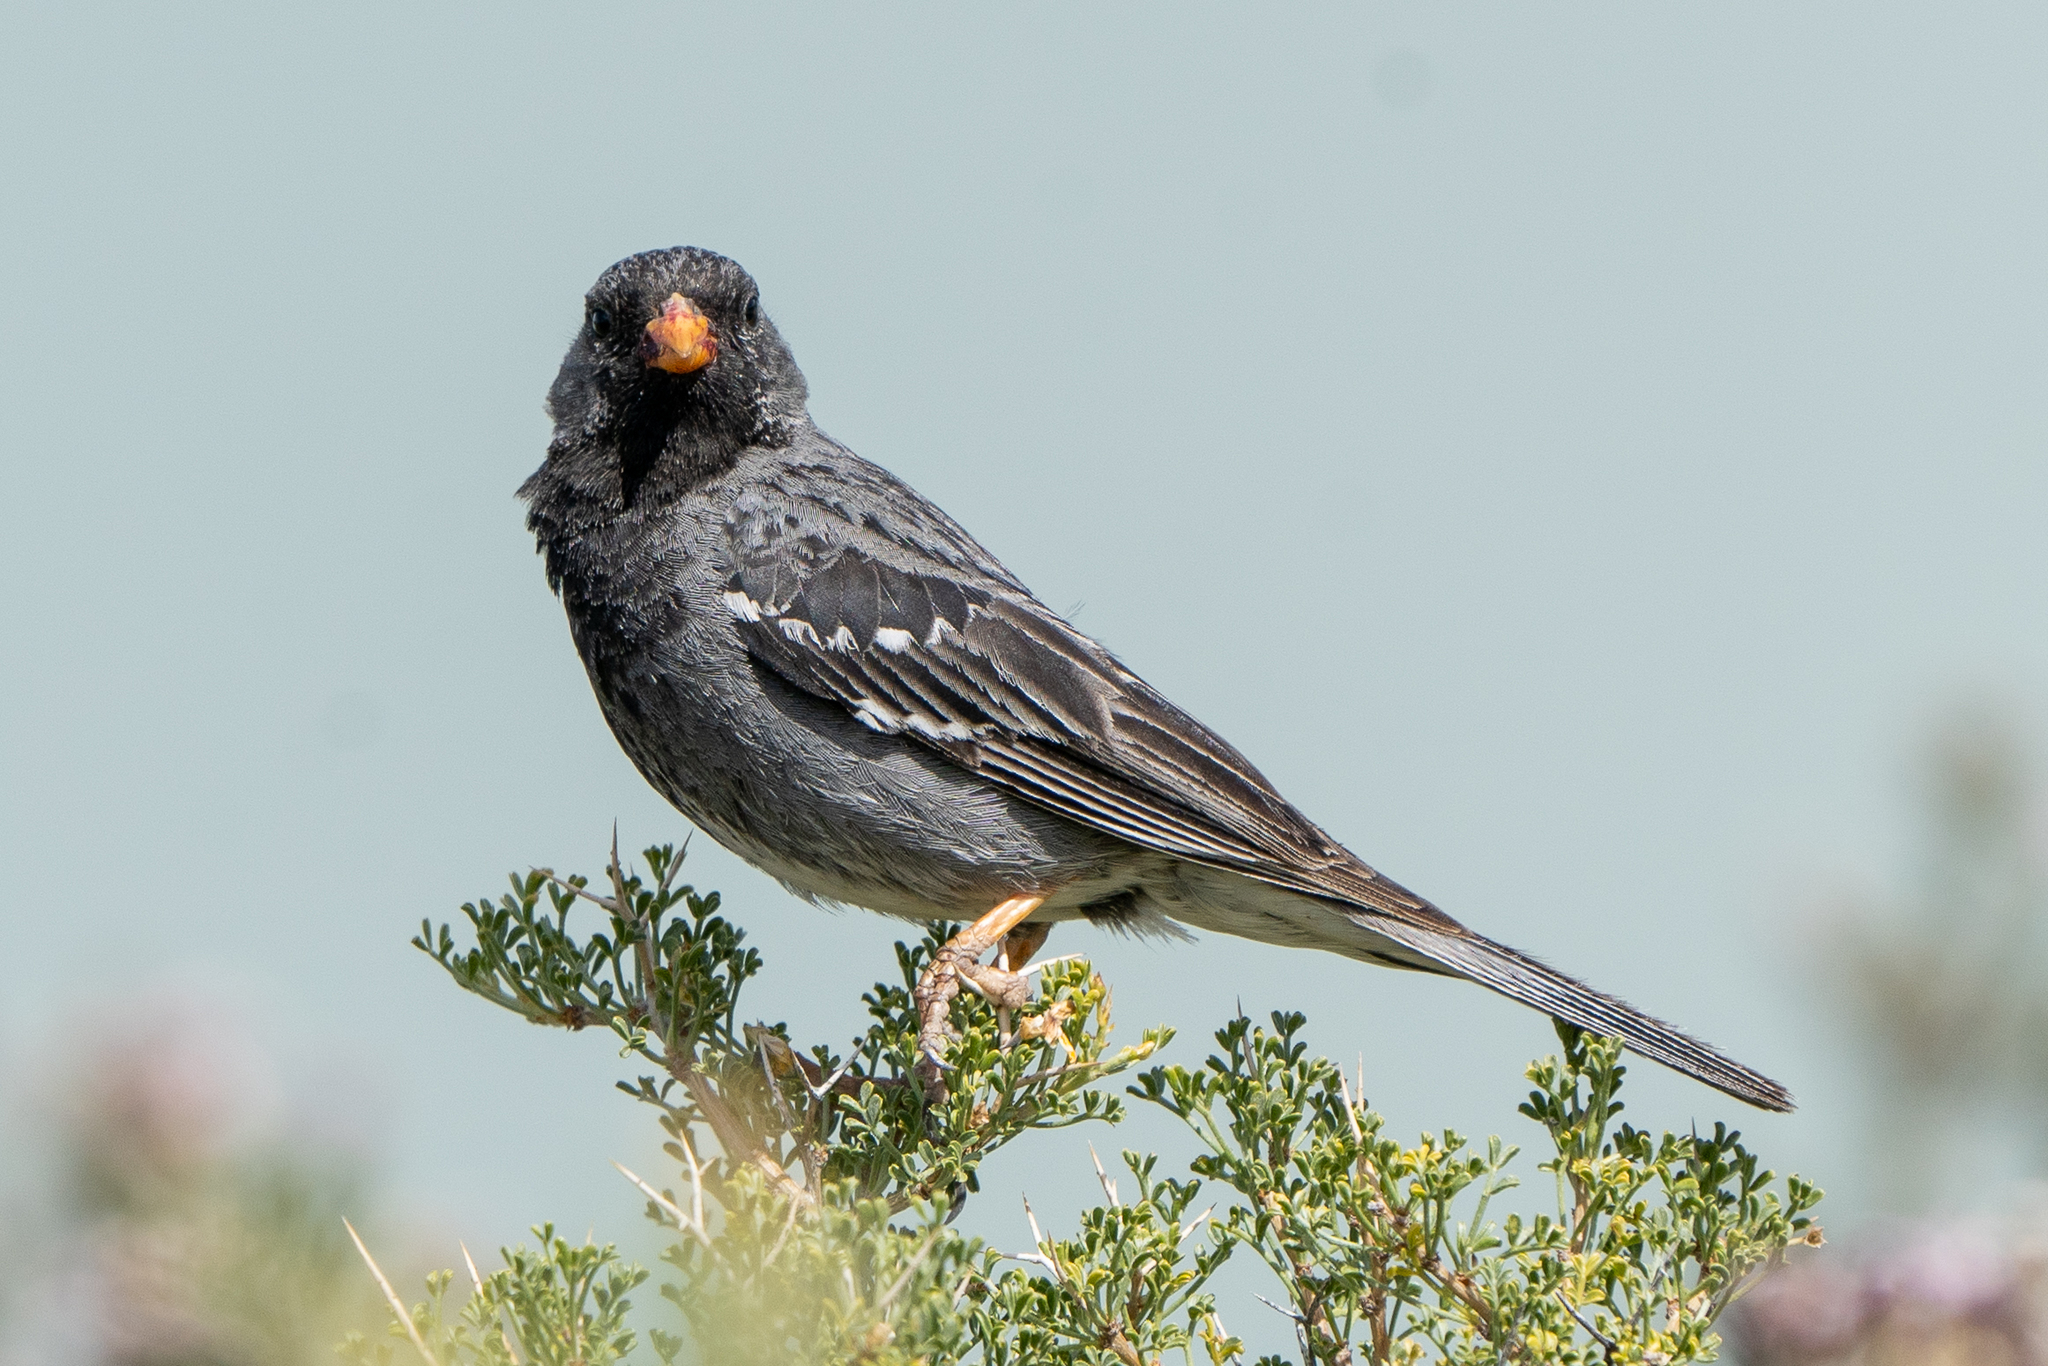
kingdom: Animalia
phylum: Chordata
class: Aves
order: Passeriformes
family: Thraupidae
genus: Rhopospina
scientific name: Rhopospina fruticeti
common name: Mourning sierra finch
